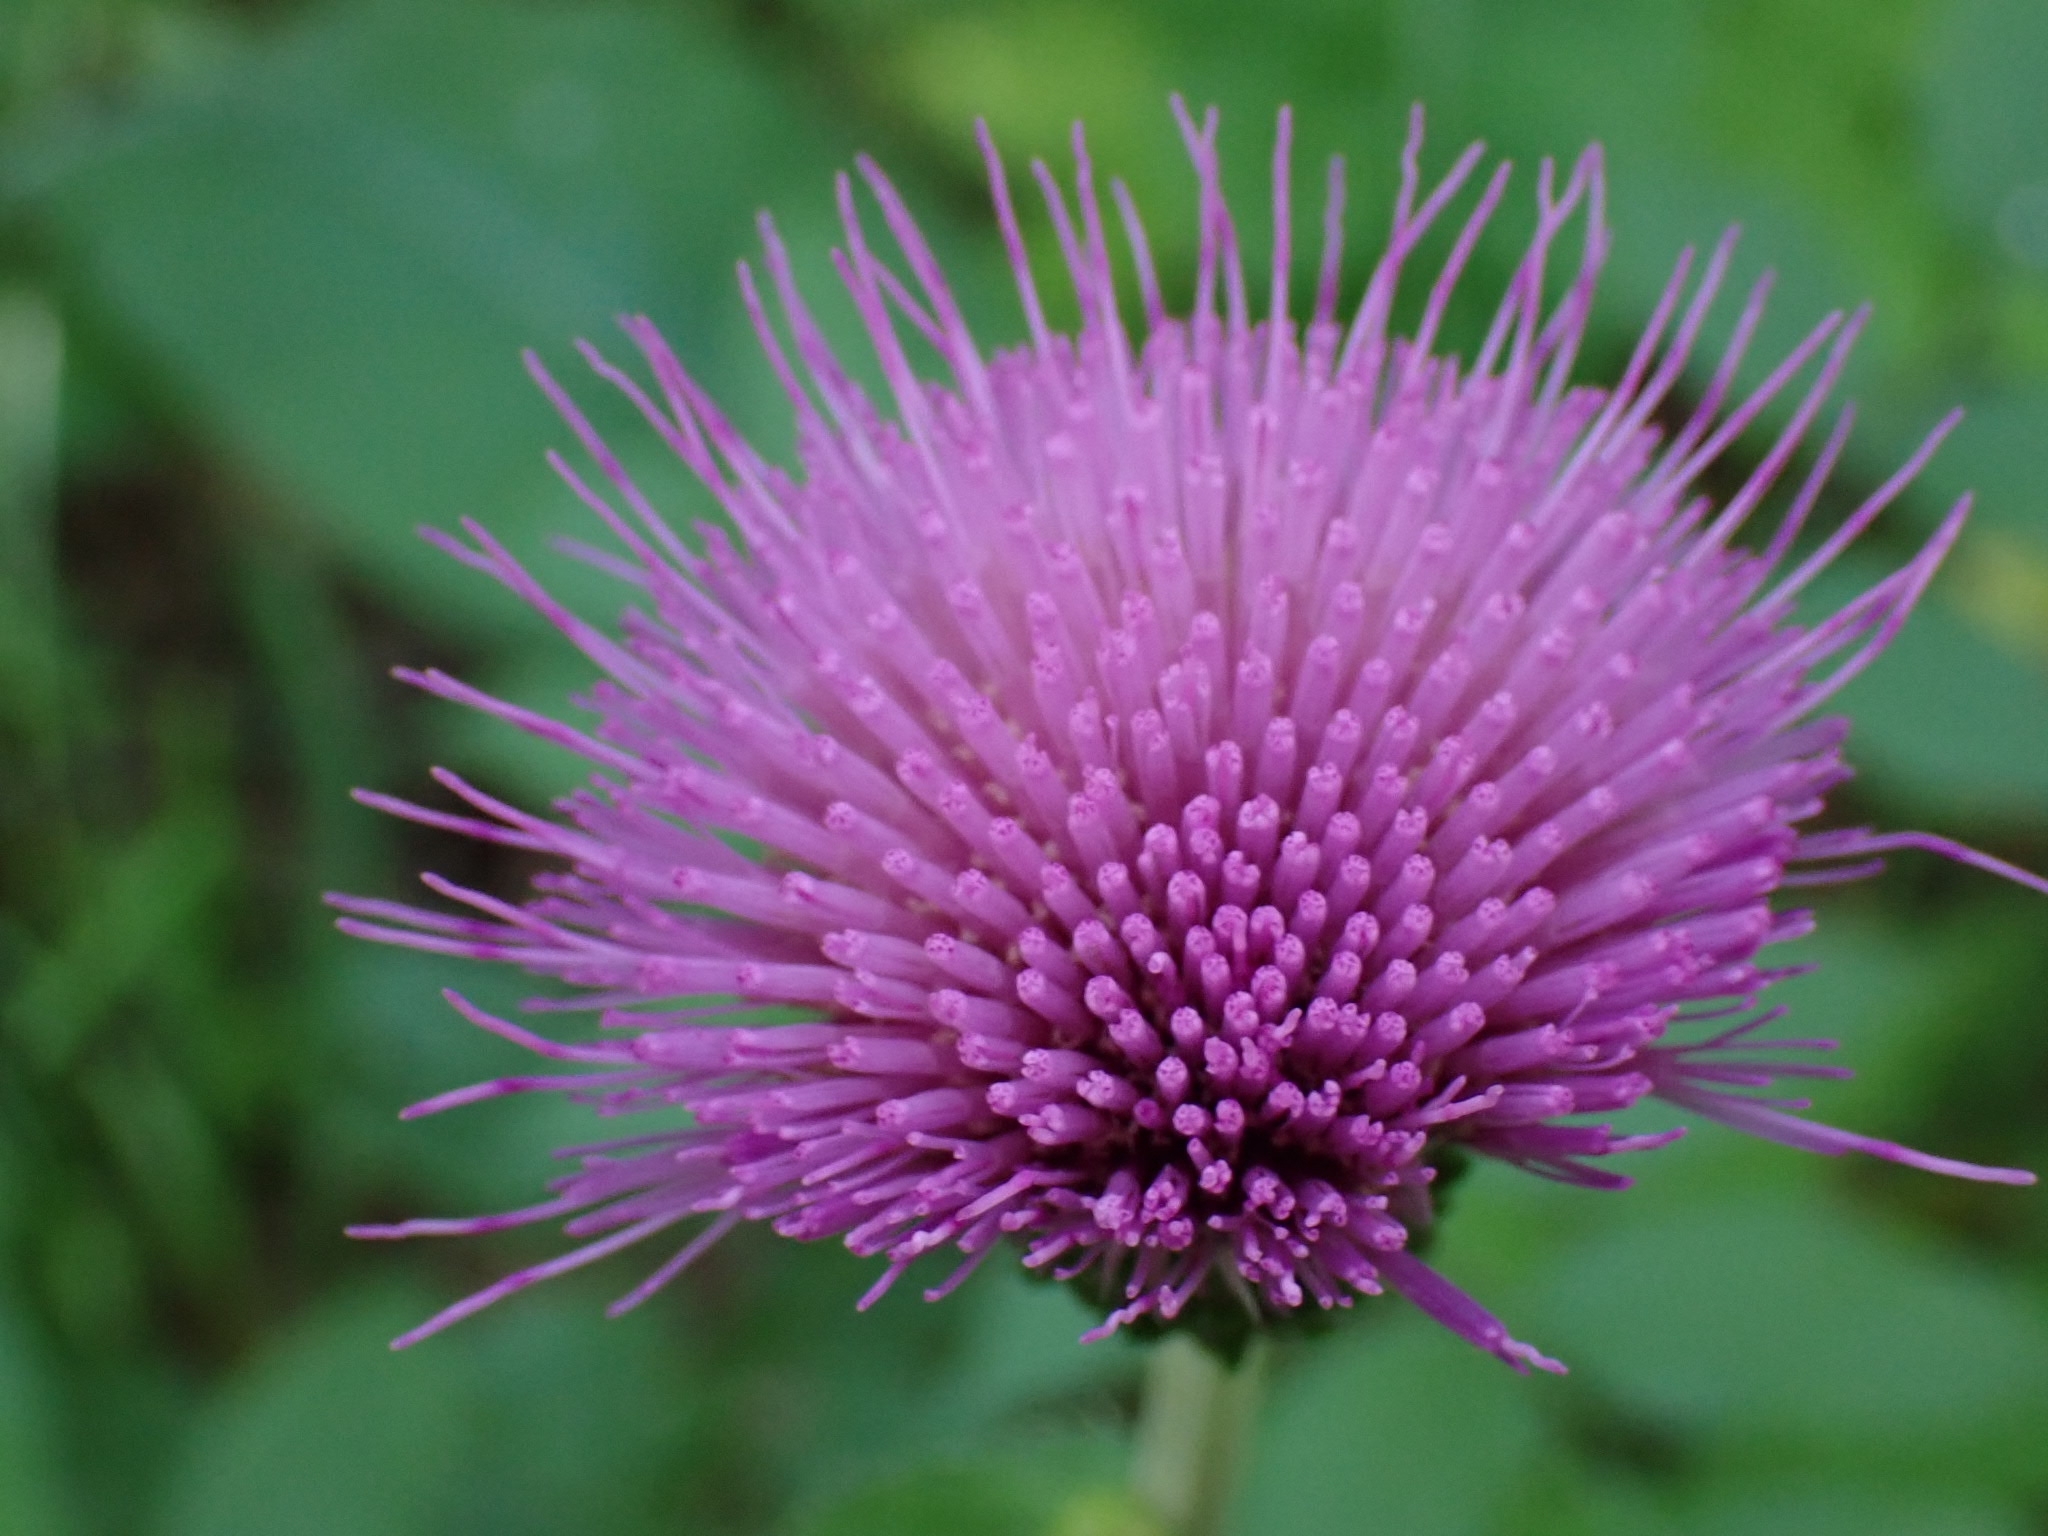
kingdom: Plantae
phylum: Tracheophyta
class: Magnoliopsida
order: Asterales
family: Asteraceae
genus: Cirsium
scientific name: Cirsium heterophyllum
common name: Melancholy thistle
